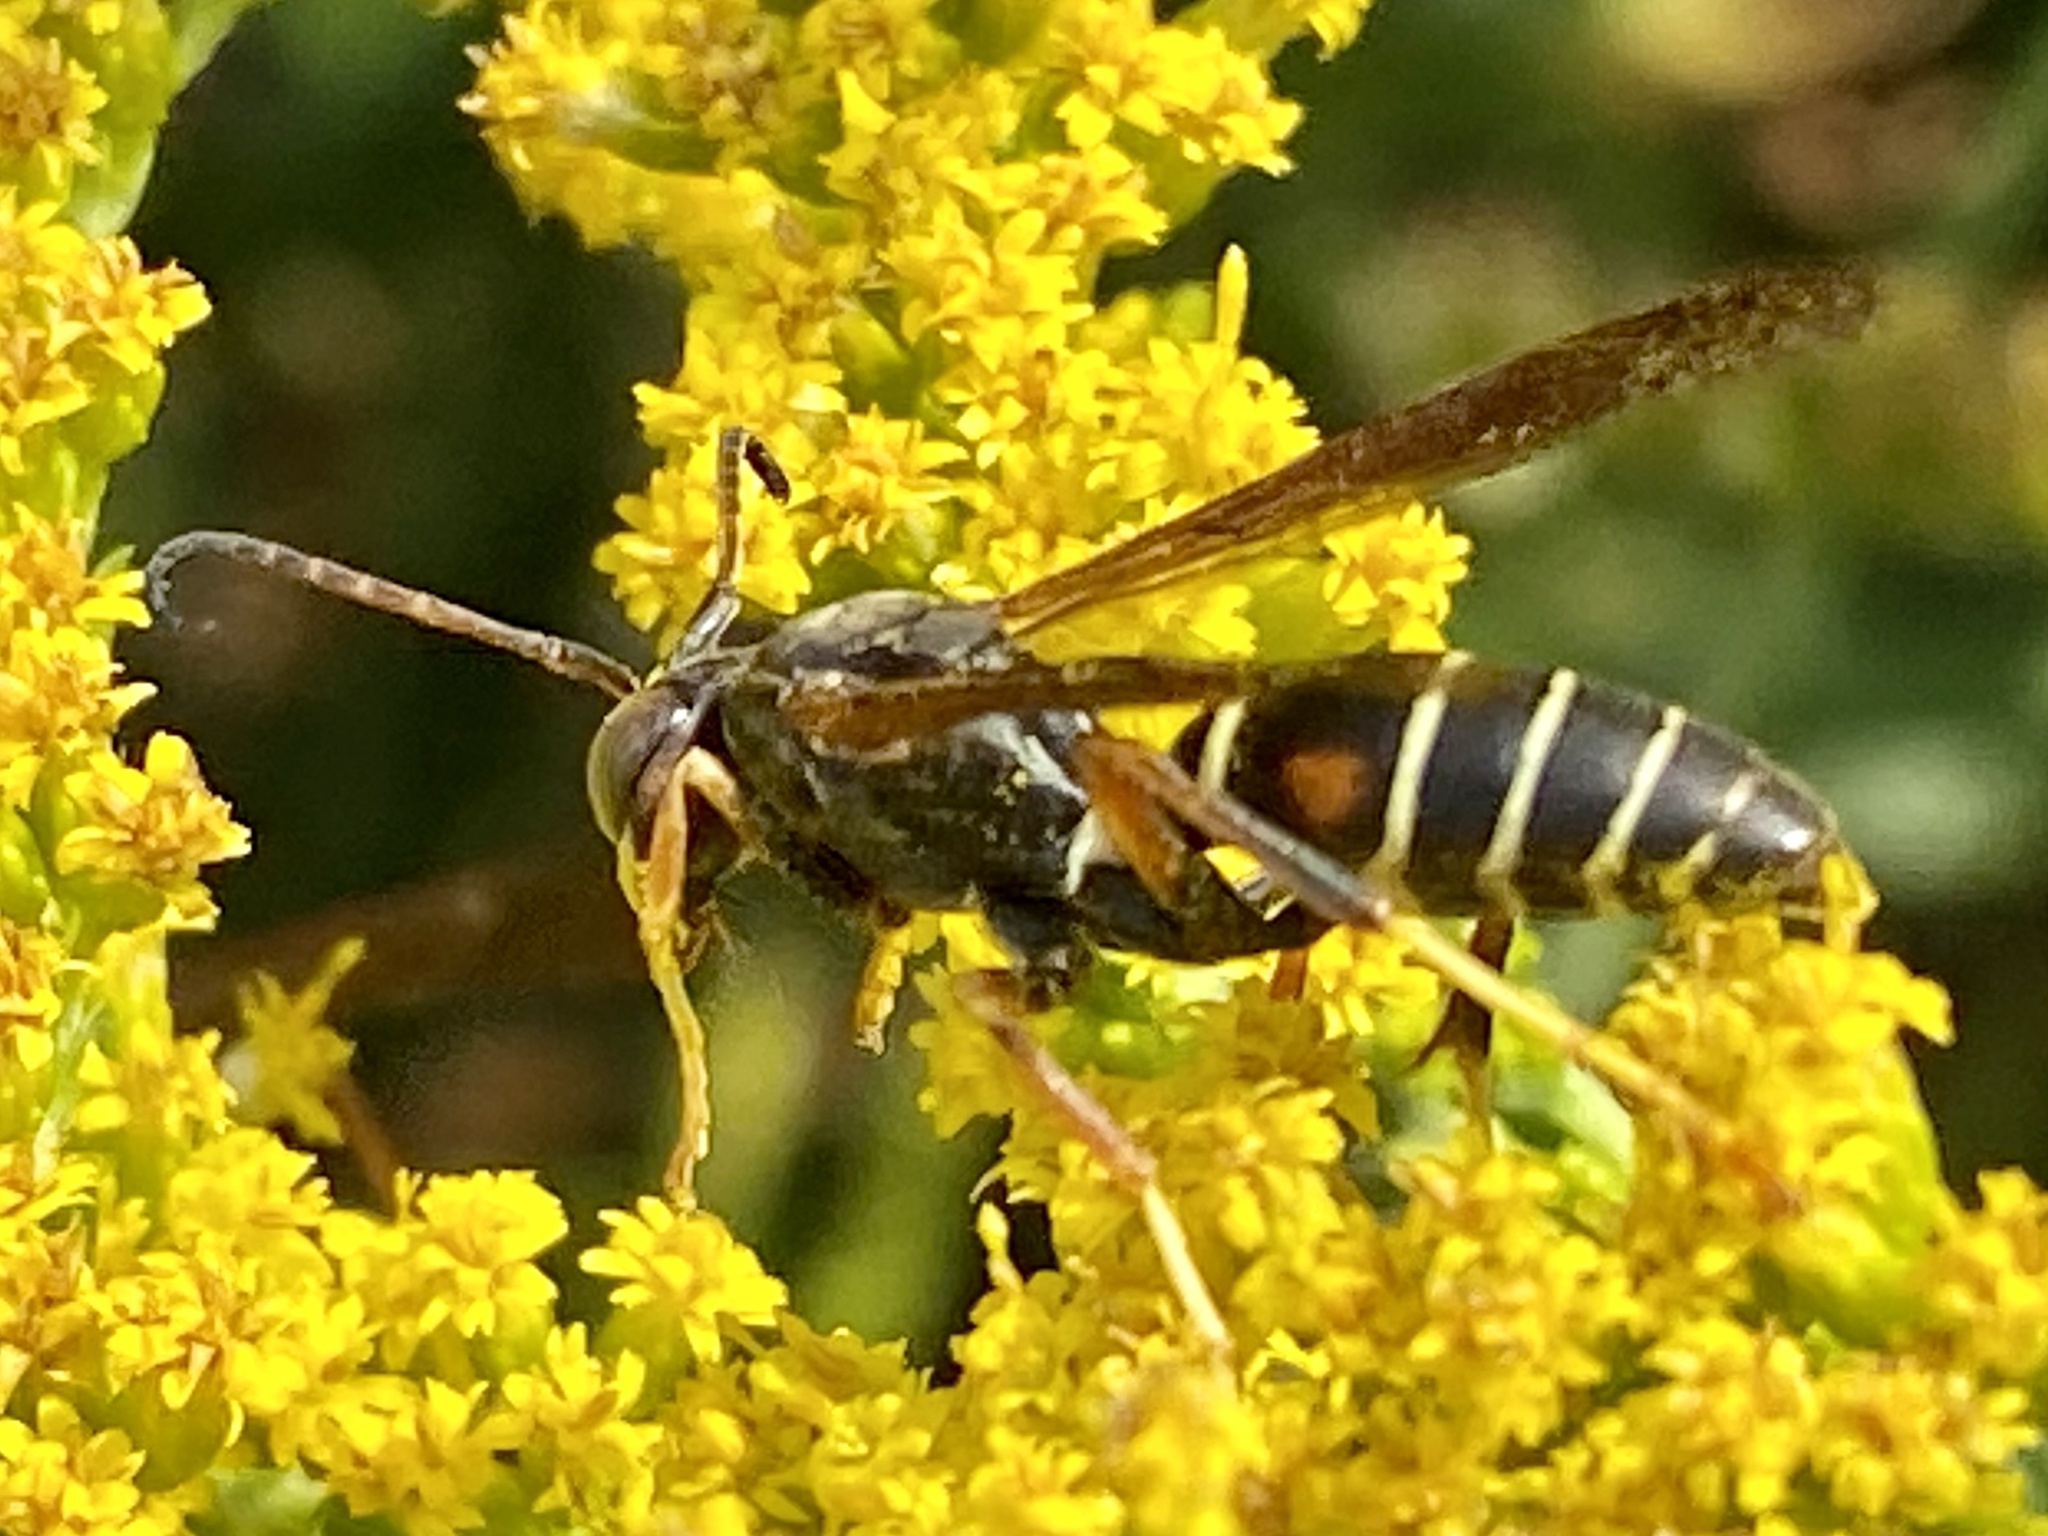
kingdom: Animalia
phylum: Arthropoda
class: Insecta
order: Hymenoptera
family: Eumenidae
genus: Polistes
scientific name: Polistes fuscatus
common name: Dark paper wasp
